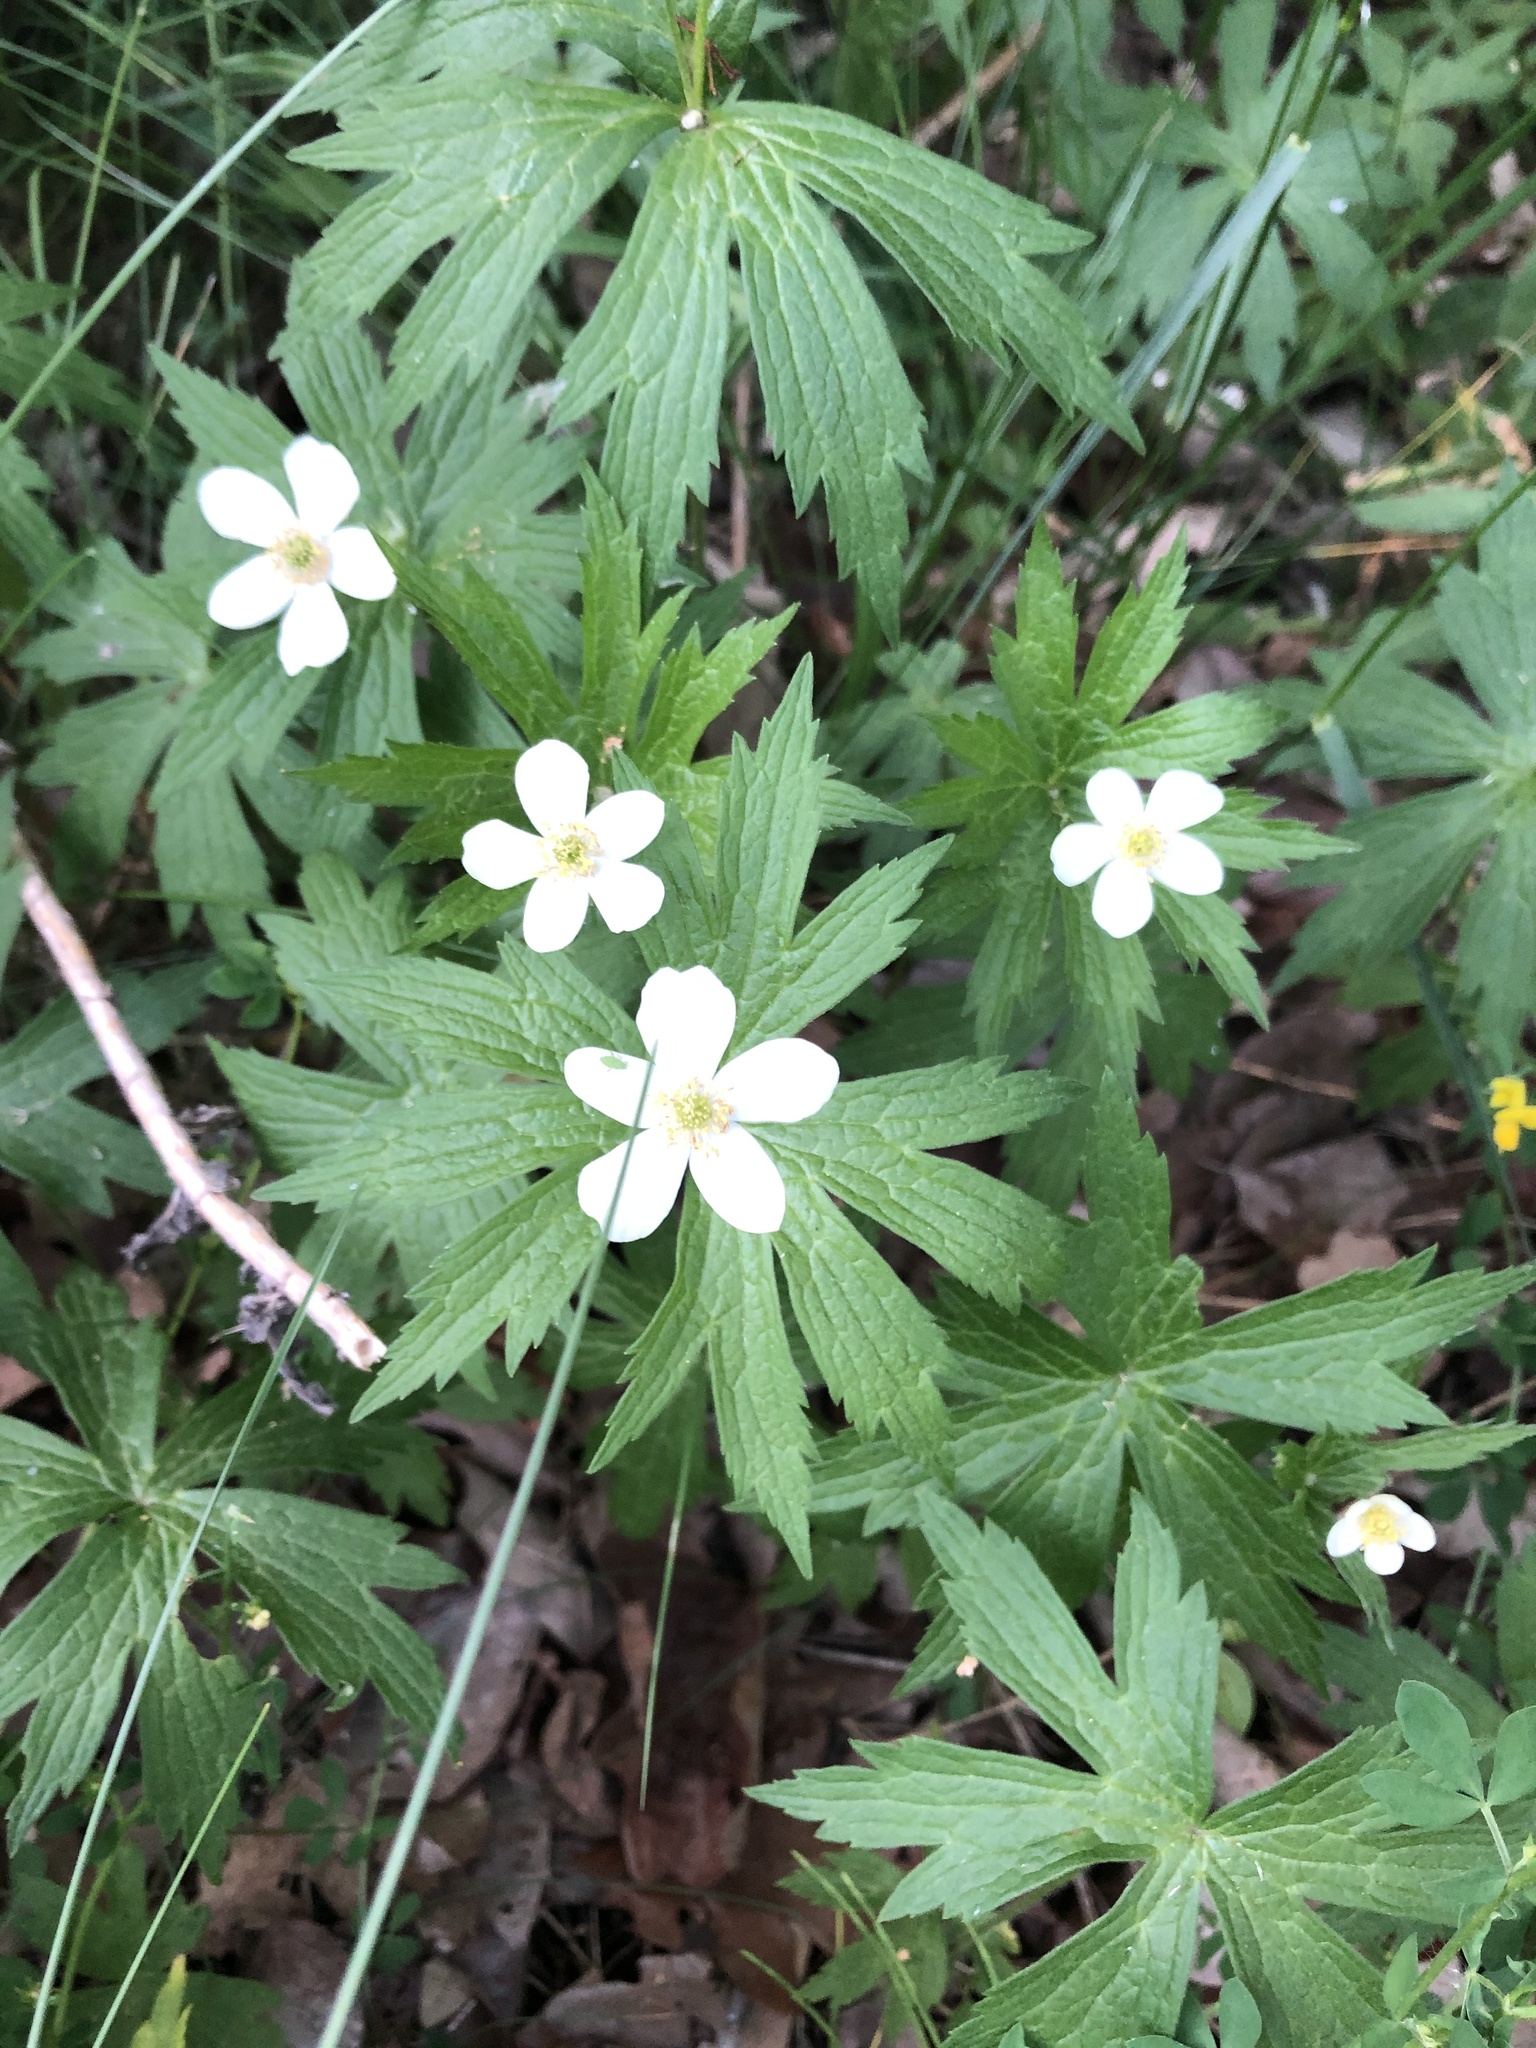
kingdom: Plantae
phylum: Tracheophyta
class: Magnoliopsida
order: Ranunculales
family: Ranunculaceae
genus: Anemonastrum
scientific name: Anemonastrum canadense
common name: Canada anemone
